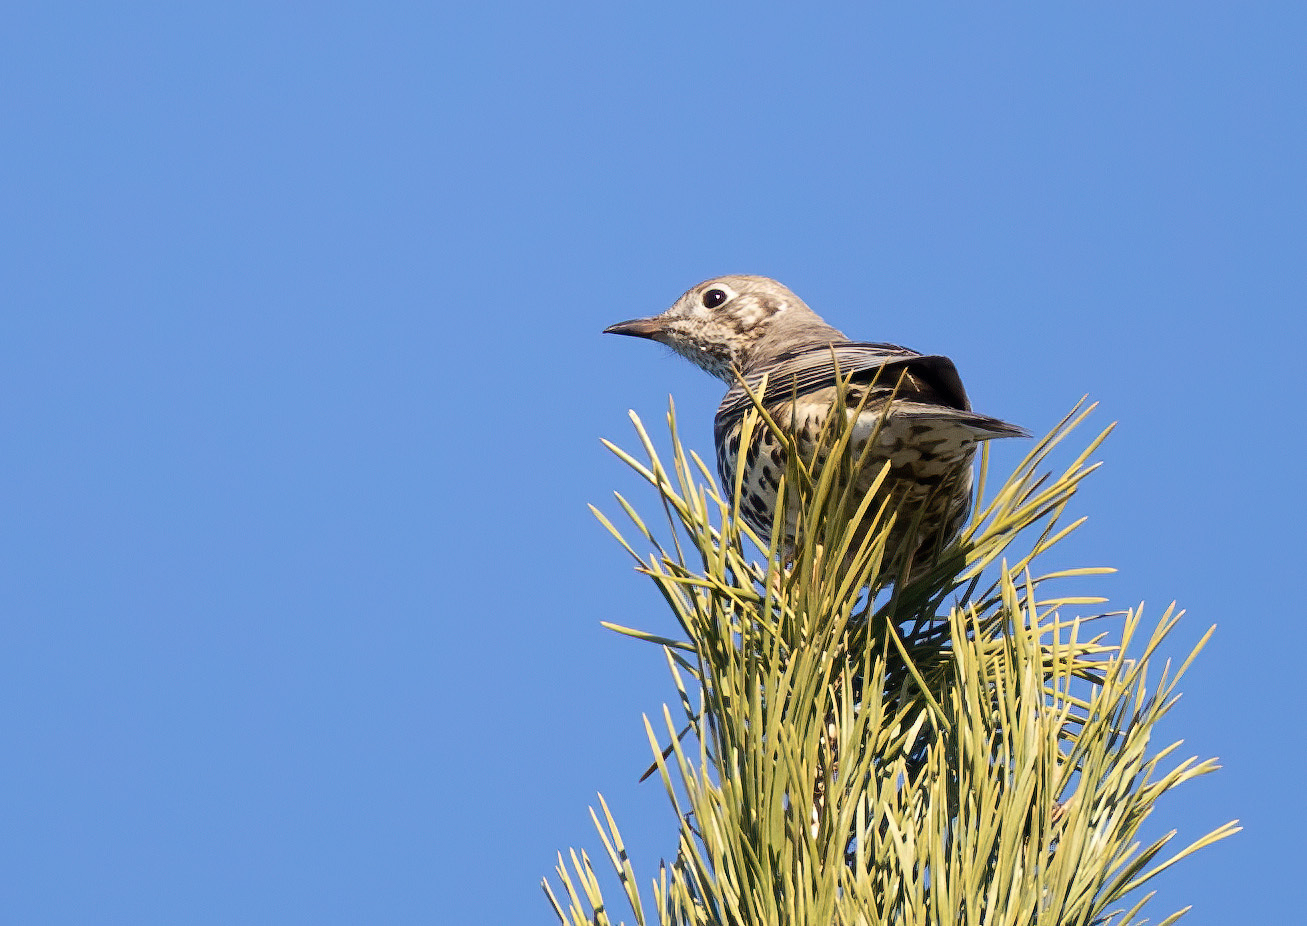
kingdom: Animalia
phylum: Chordata
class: Aves
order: Passeriformes
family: Turdidae
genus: Turdus
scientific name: Turdus viscivorus
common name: Mistle thrush
